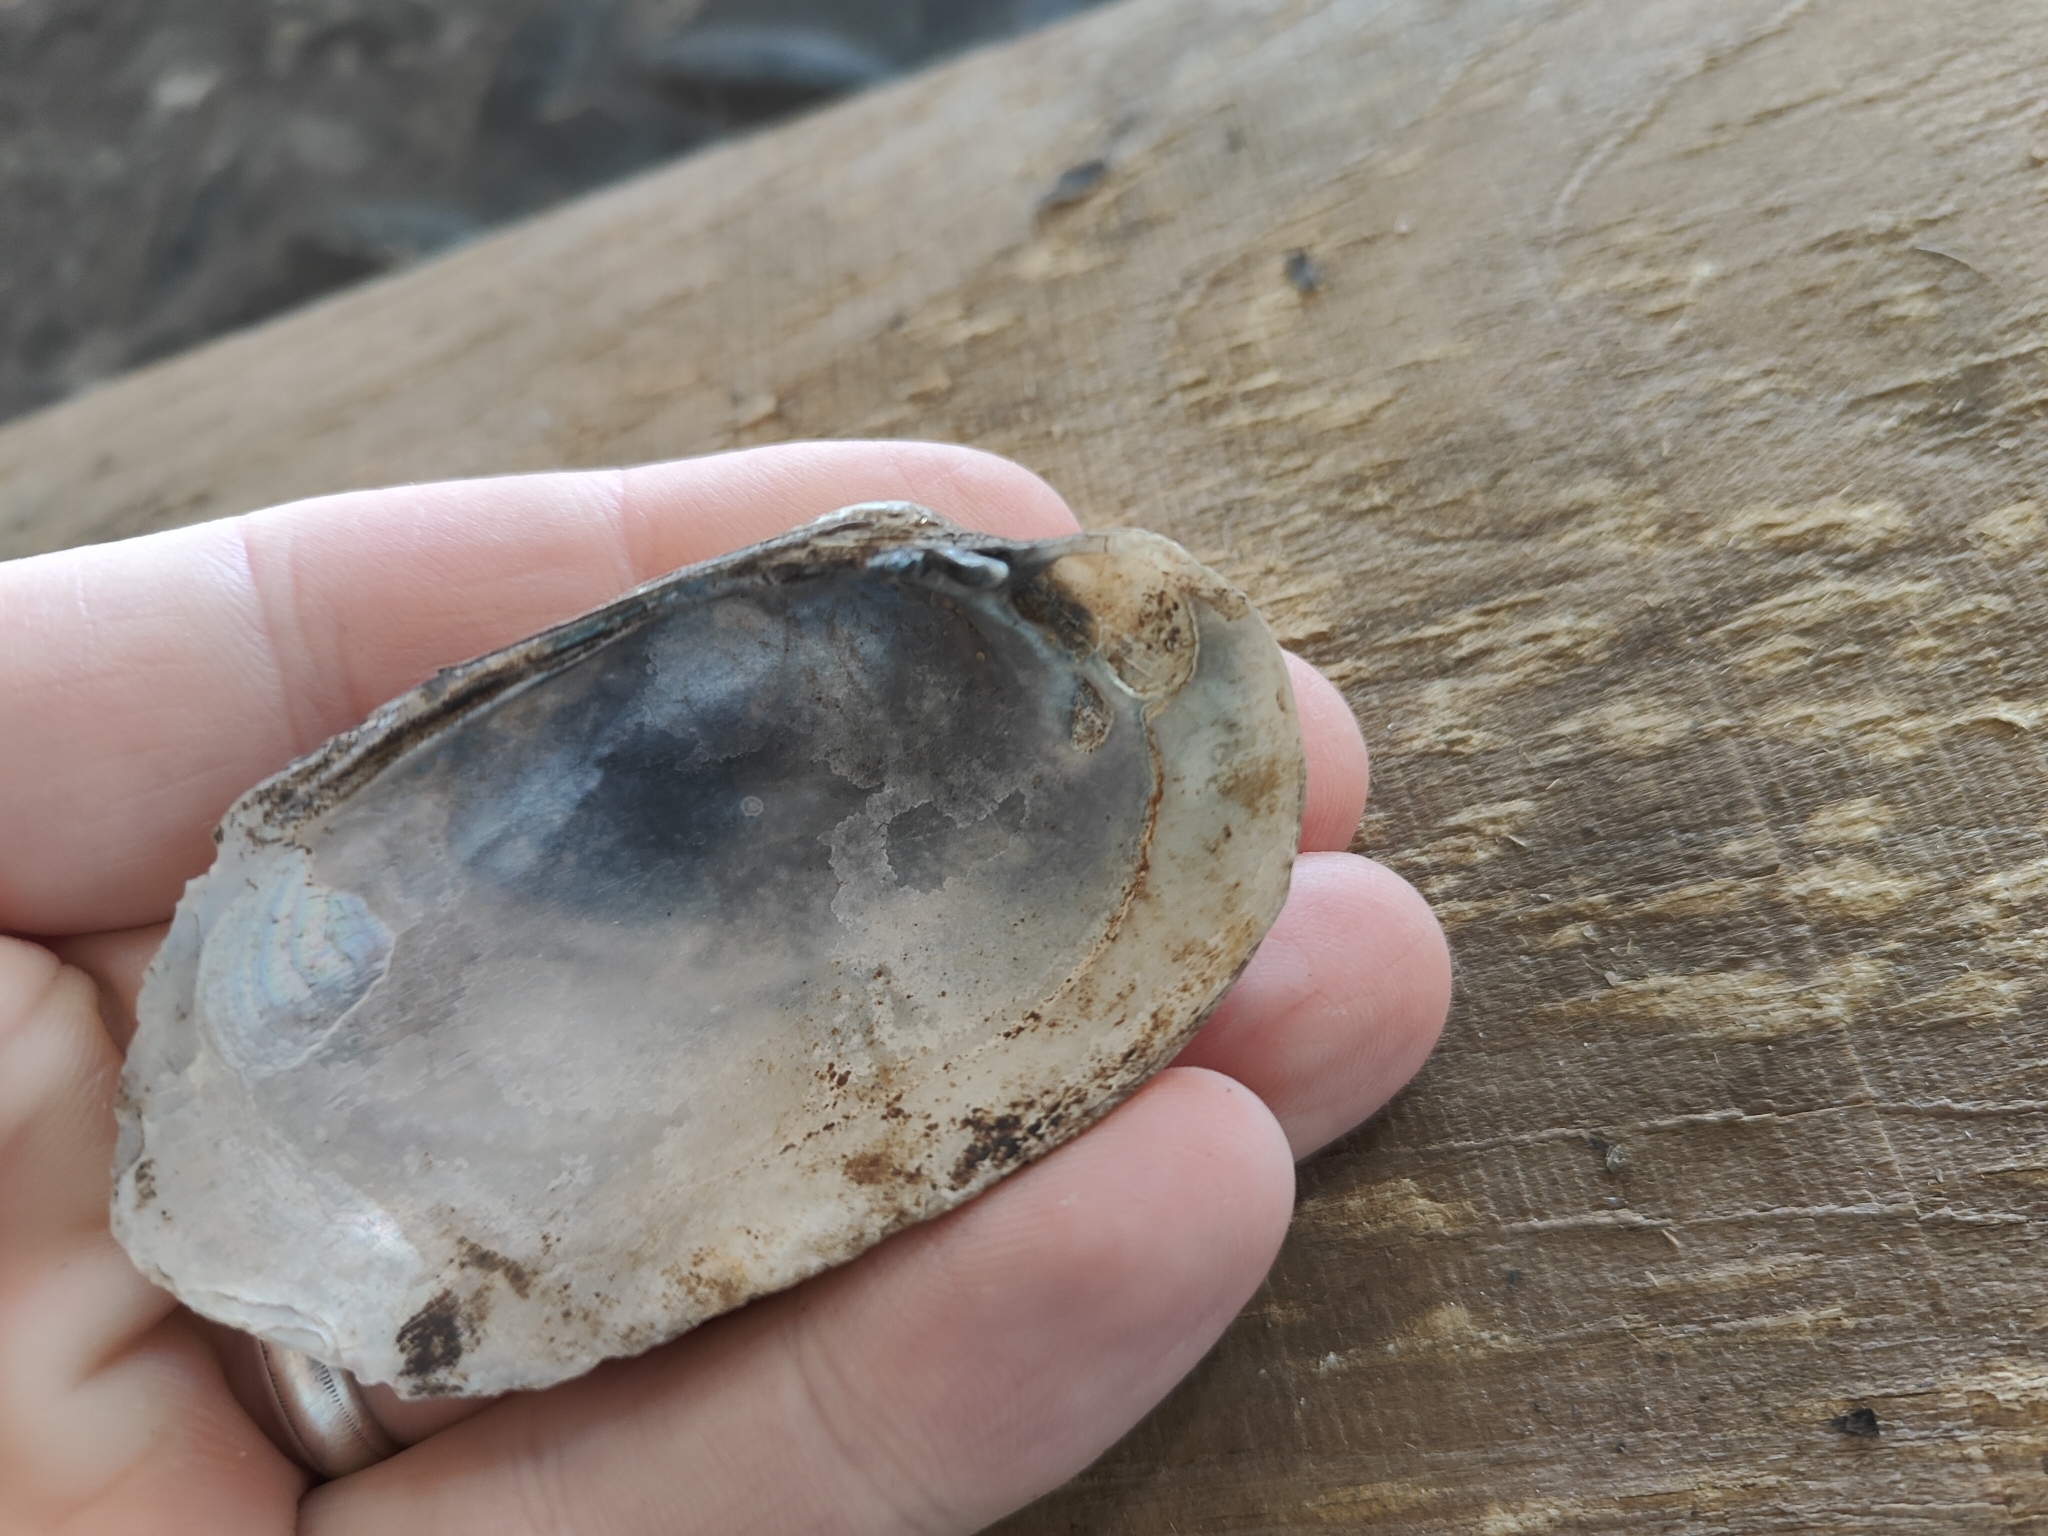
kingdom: Animalia
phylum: Mollusca
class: Bivalvia
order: Unionida
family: Unionidae
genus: Lampsilis
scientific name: Lampsilis siliquoidea
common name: Fatmucket
